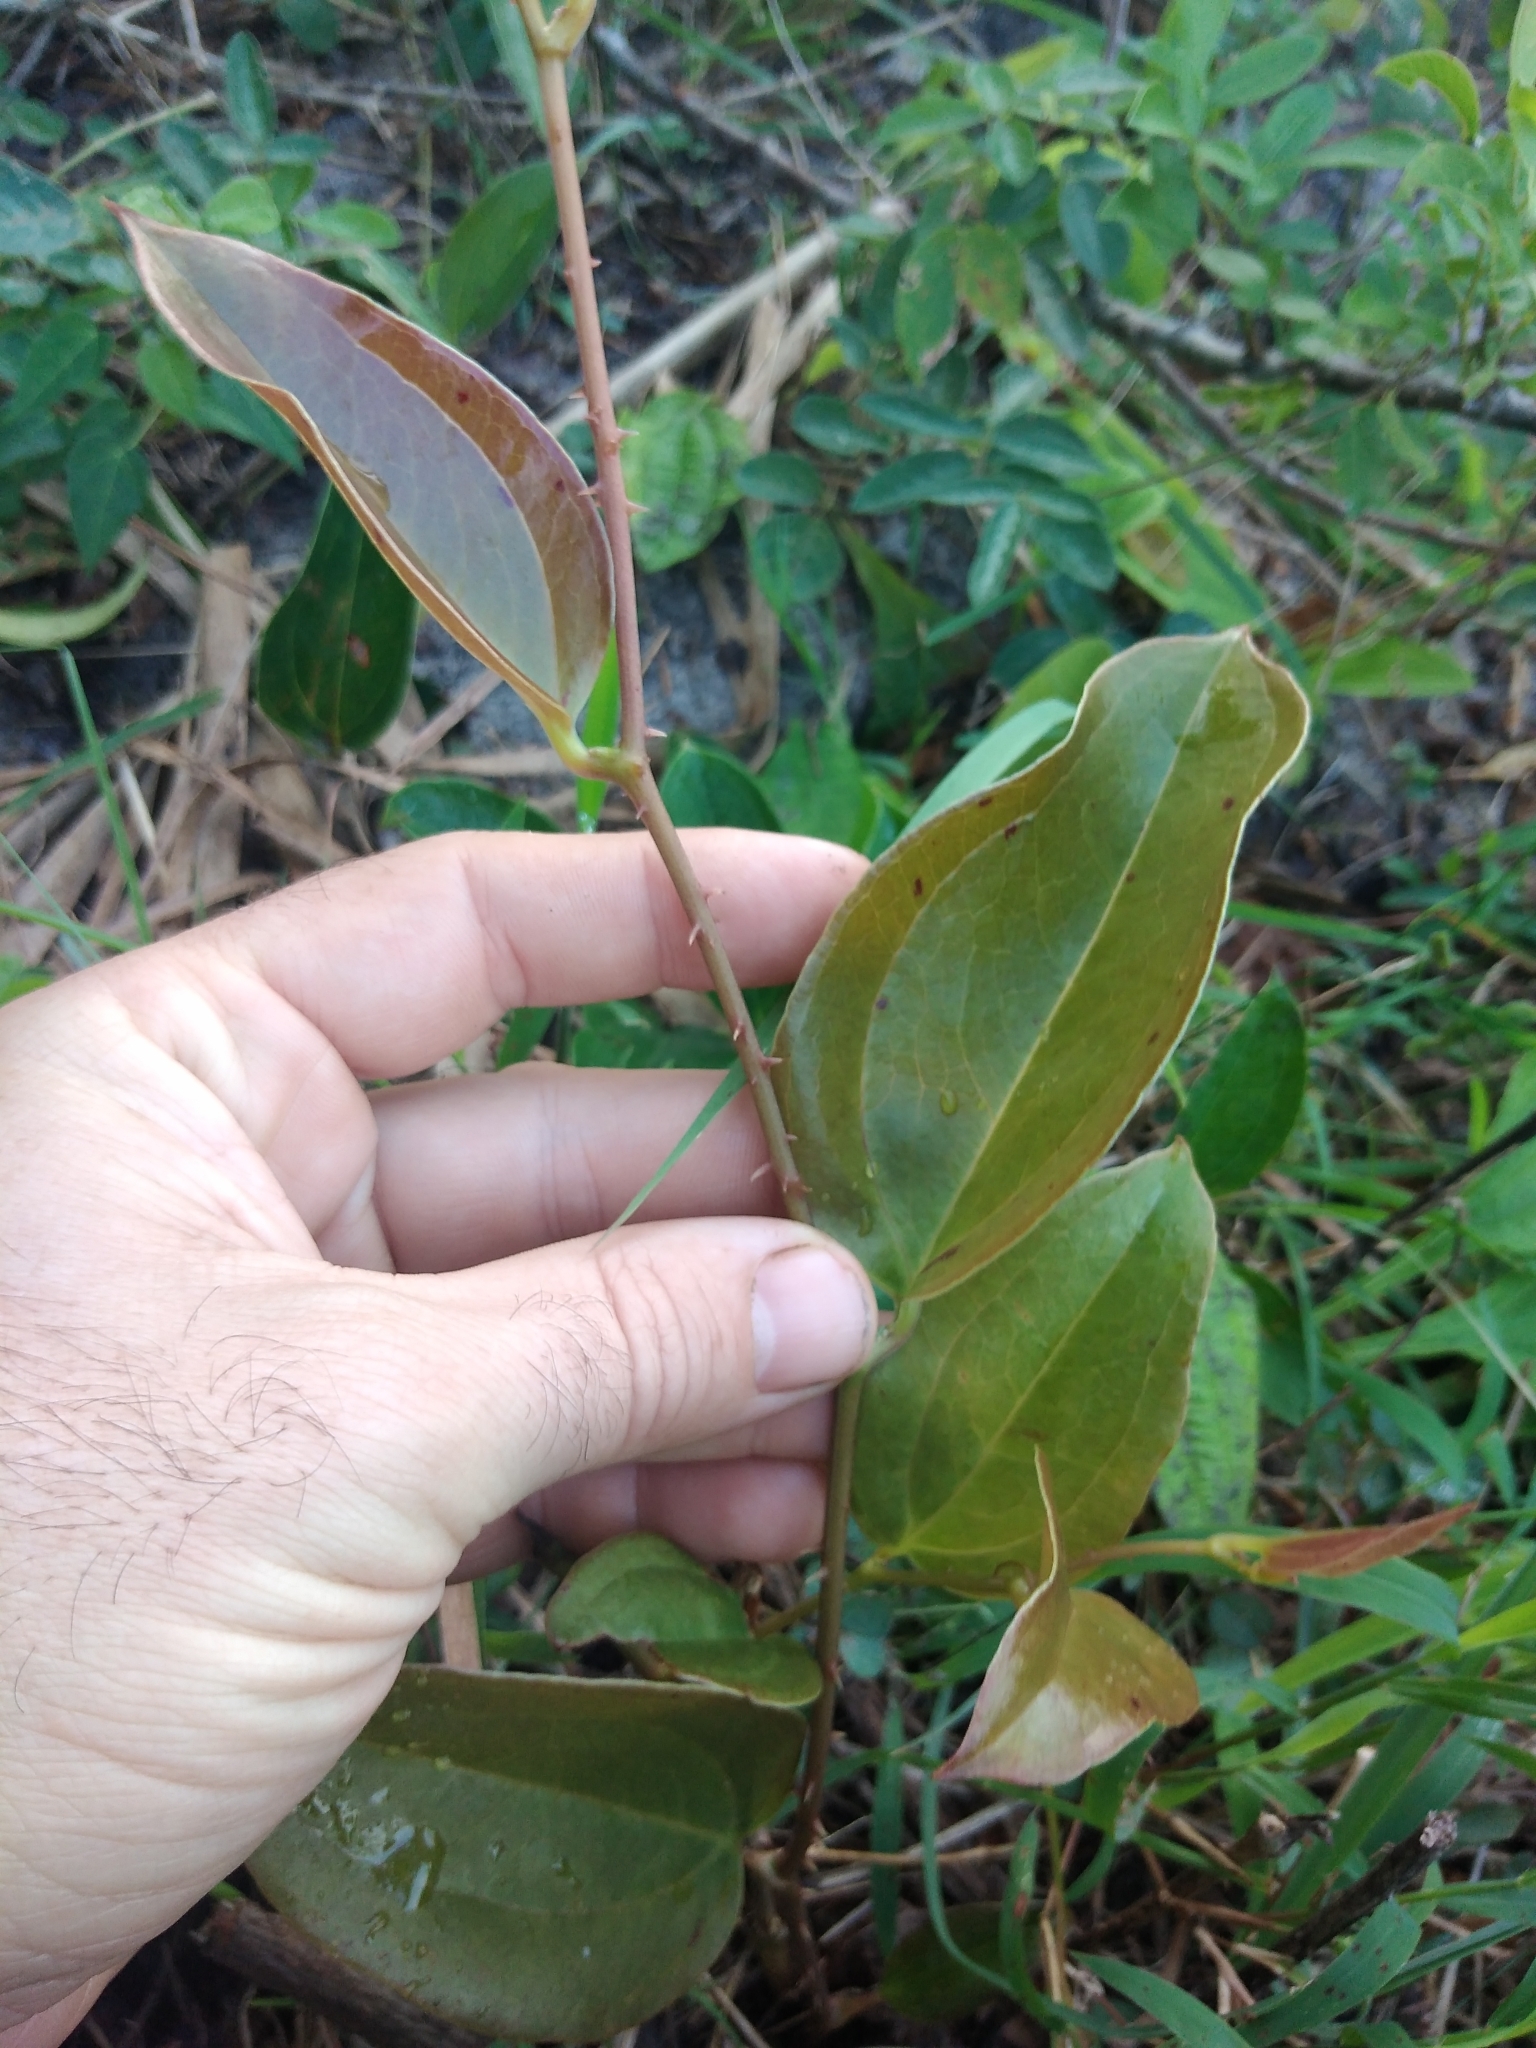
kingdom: Plantae
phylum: Tracheophyta
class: Liliopsida
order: Liliales
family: Smilacaceae
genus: Smilax
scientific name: Smilax anceps
